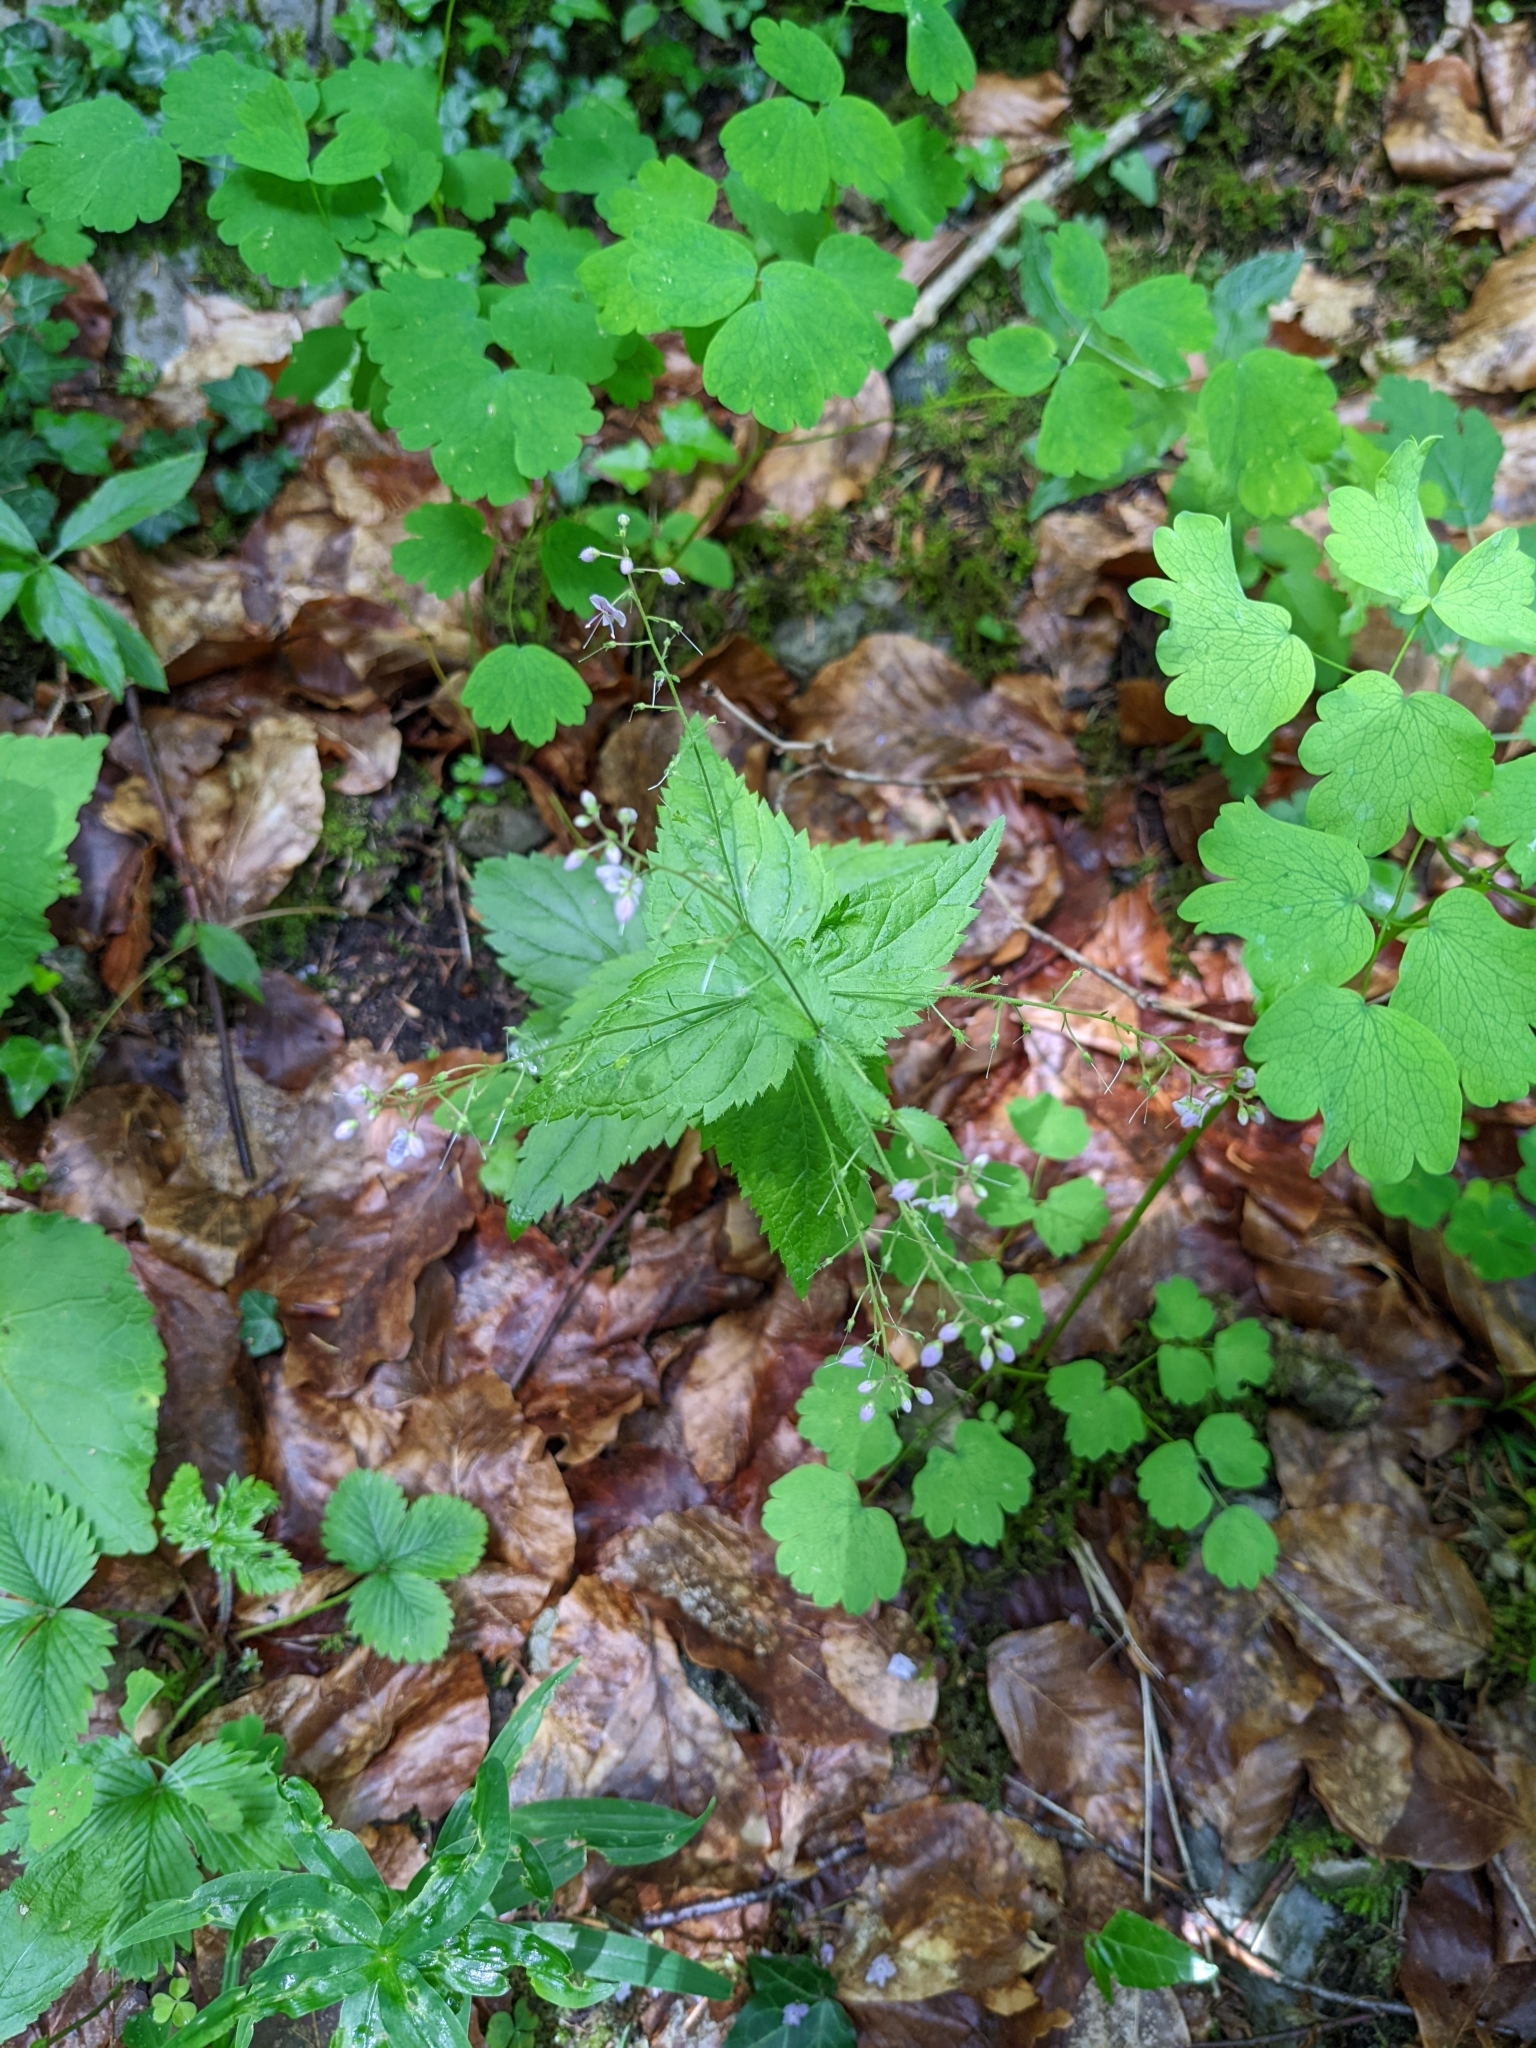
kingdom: Plantae
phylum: Tracheophyta
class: Magnoliopsida
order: Lamiales
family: Plantaginaceae
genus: Veronica
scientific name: Veronica urticifolia
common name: Nettle-leaf speedwell
